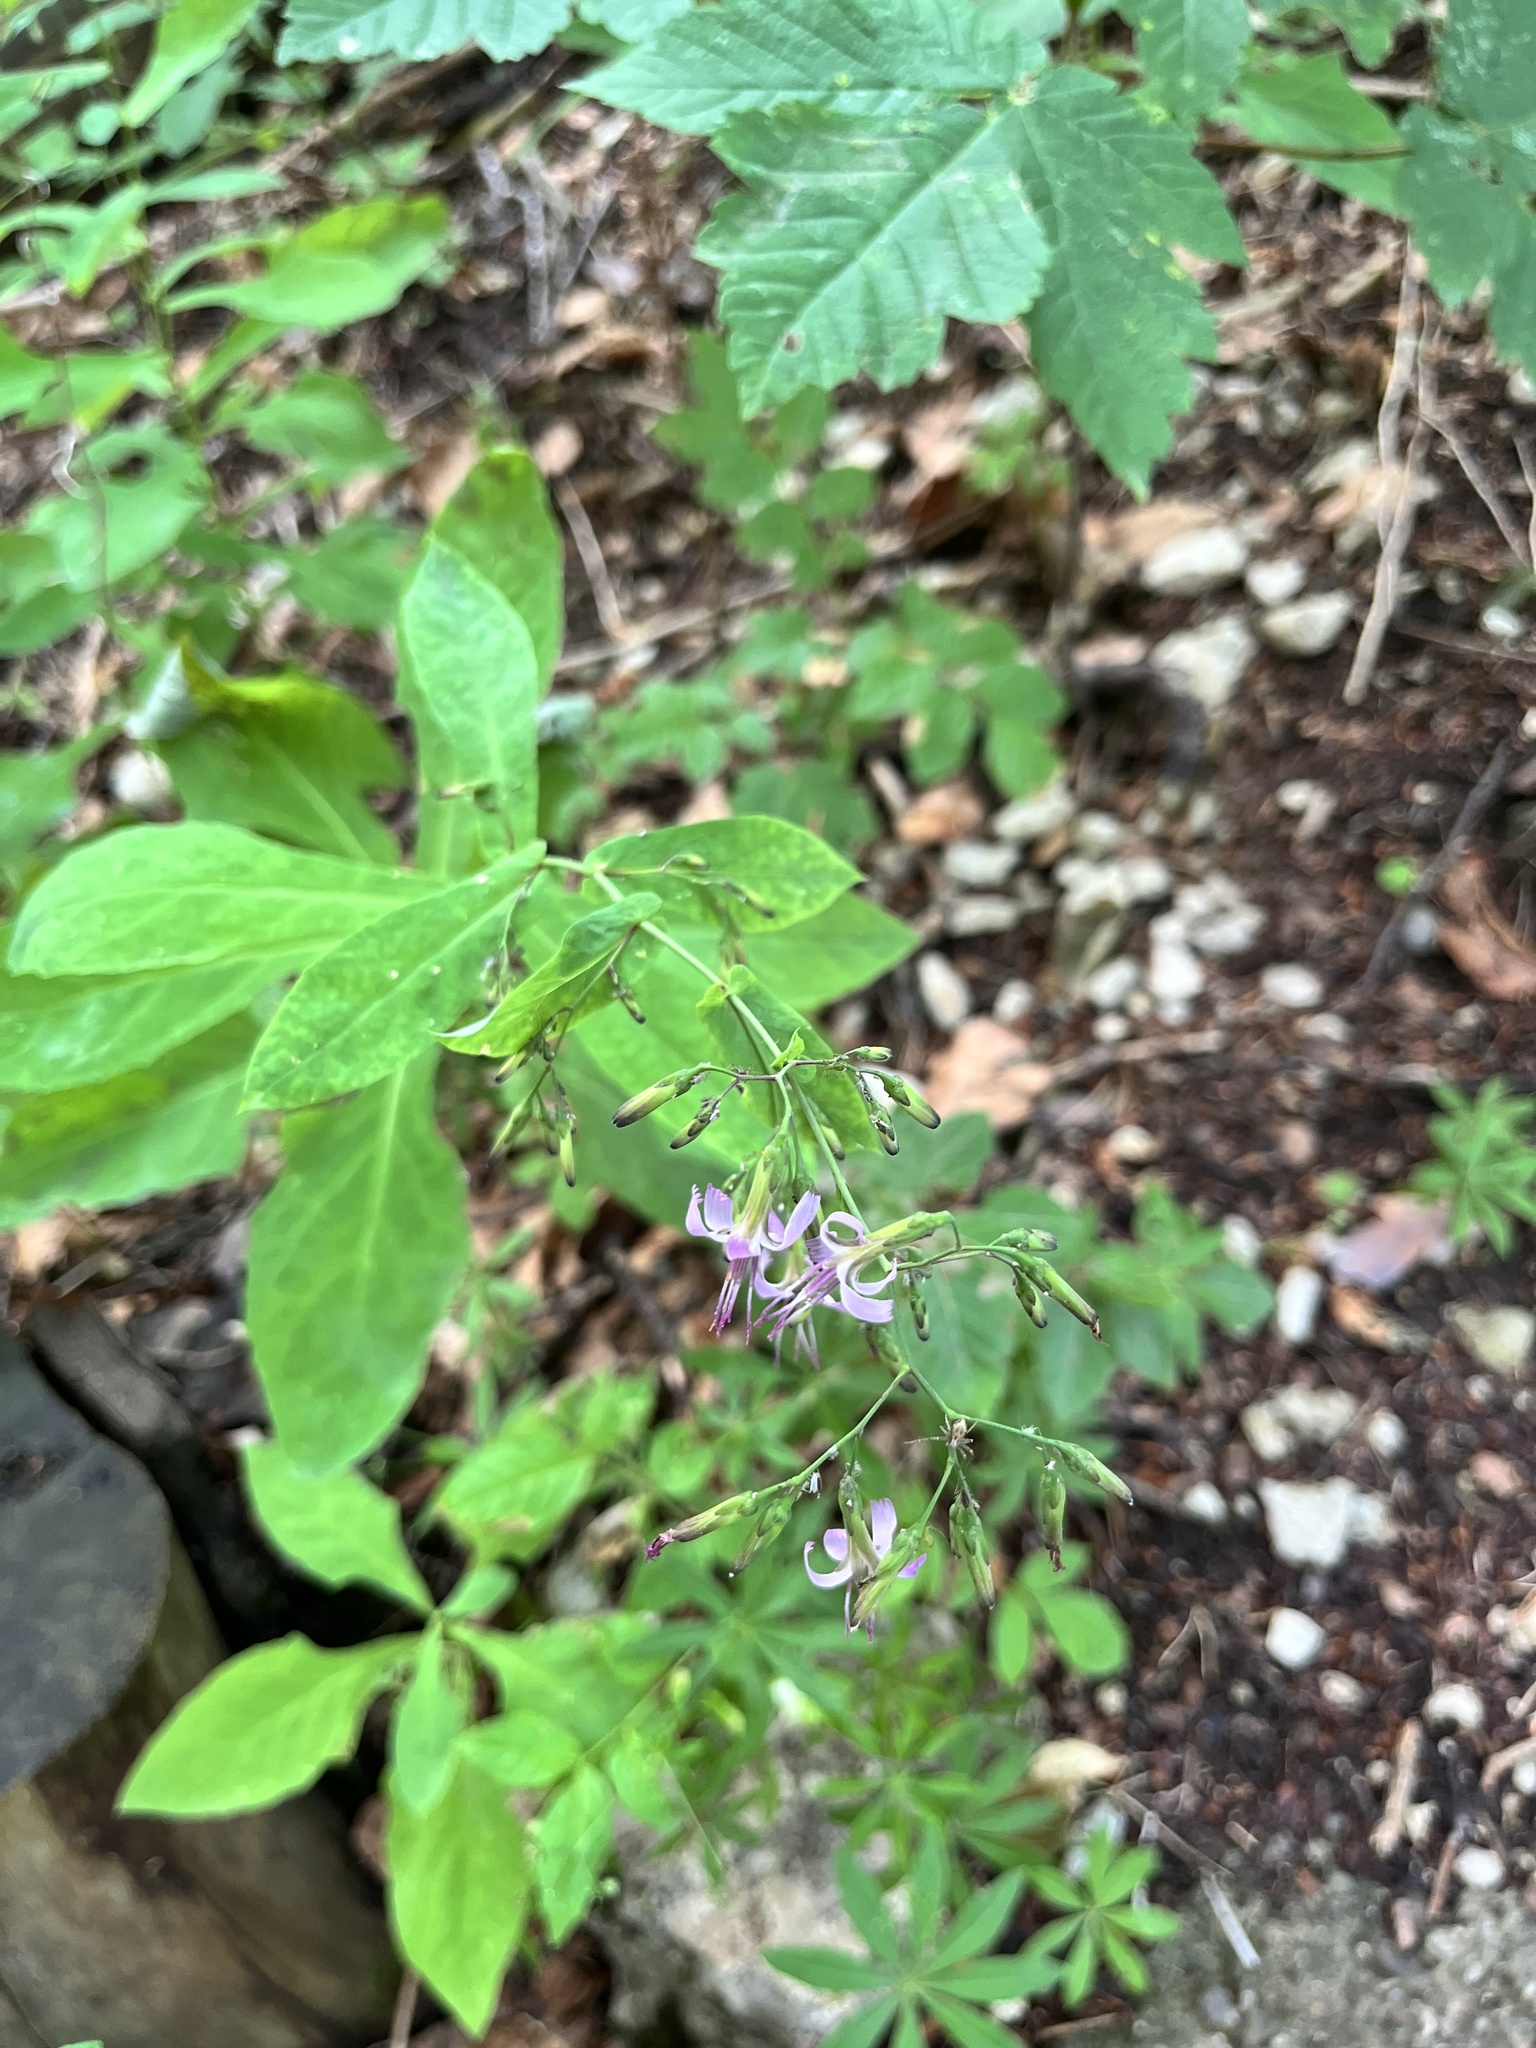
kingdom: Plantae
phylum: Tracheophyta
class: Magnoliopsida
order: Asterales
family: Asteraceae
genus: Prenanthes
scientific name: Prenanthes purpurea
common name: Purple lettuce
